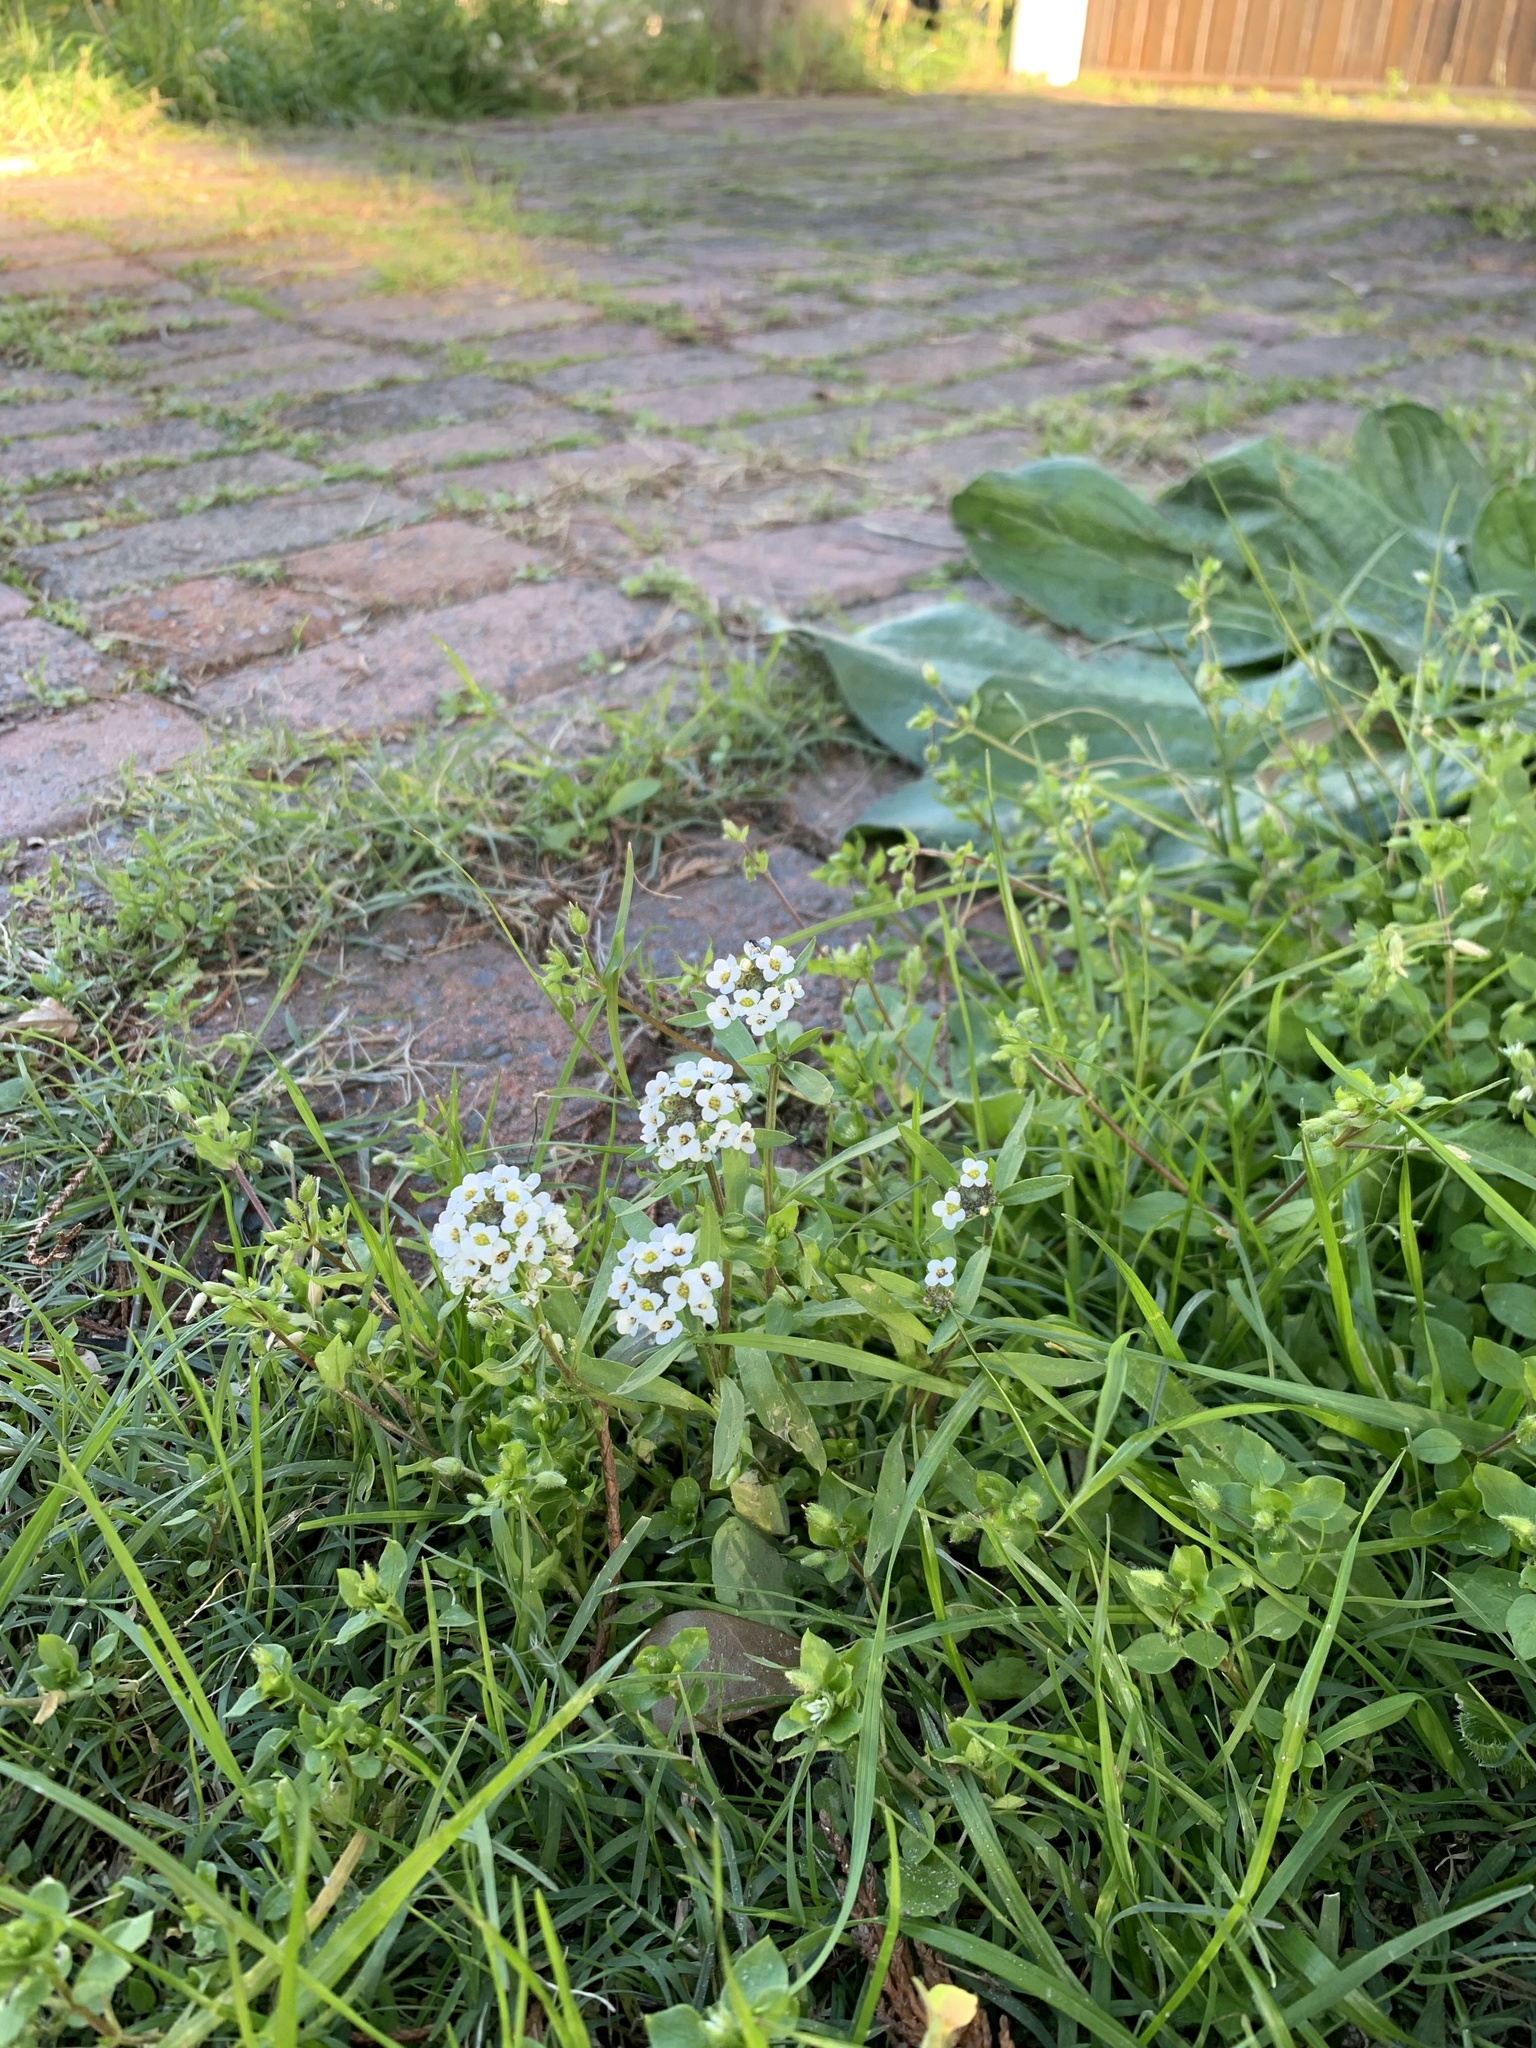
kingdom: Plantae
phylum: Tracheophyta
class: Magnoliopsida
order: Brassicales
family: Brassicaceae
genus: Lobularia
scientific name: Lobularia maritima
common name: Sweet alison
